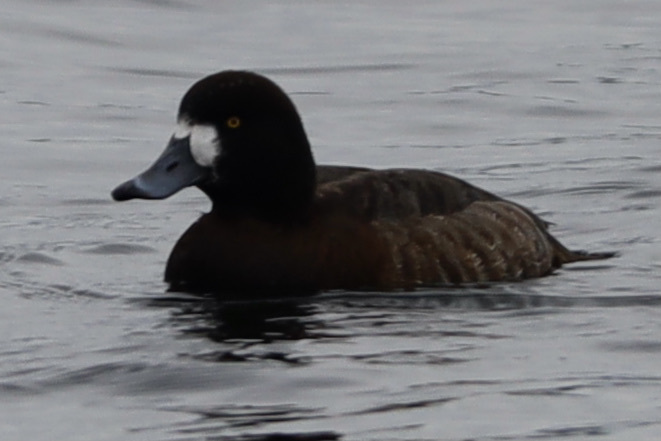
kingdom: Animalia
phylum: Chordata
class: Aves
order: Anseriformes
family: Anatidae
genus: Aythya
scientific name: Aythya marila
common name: Greater scaup
